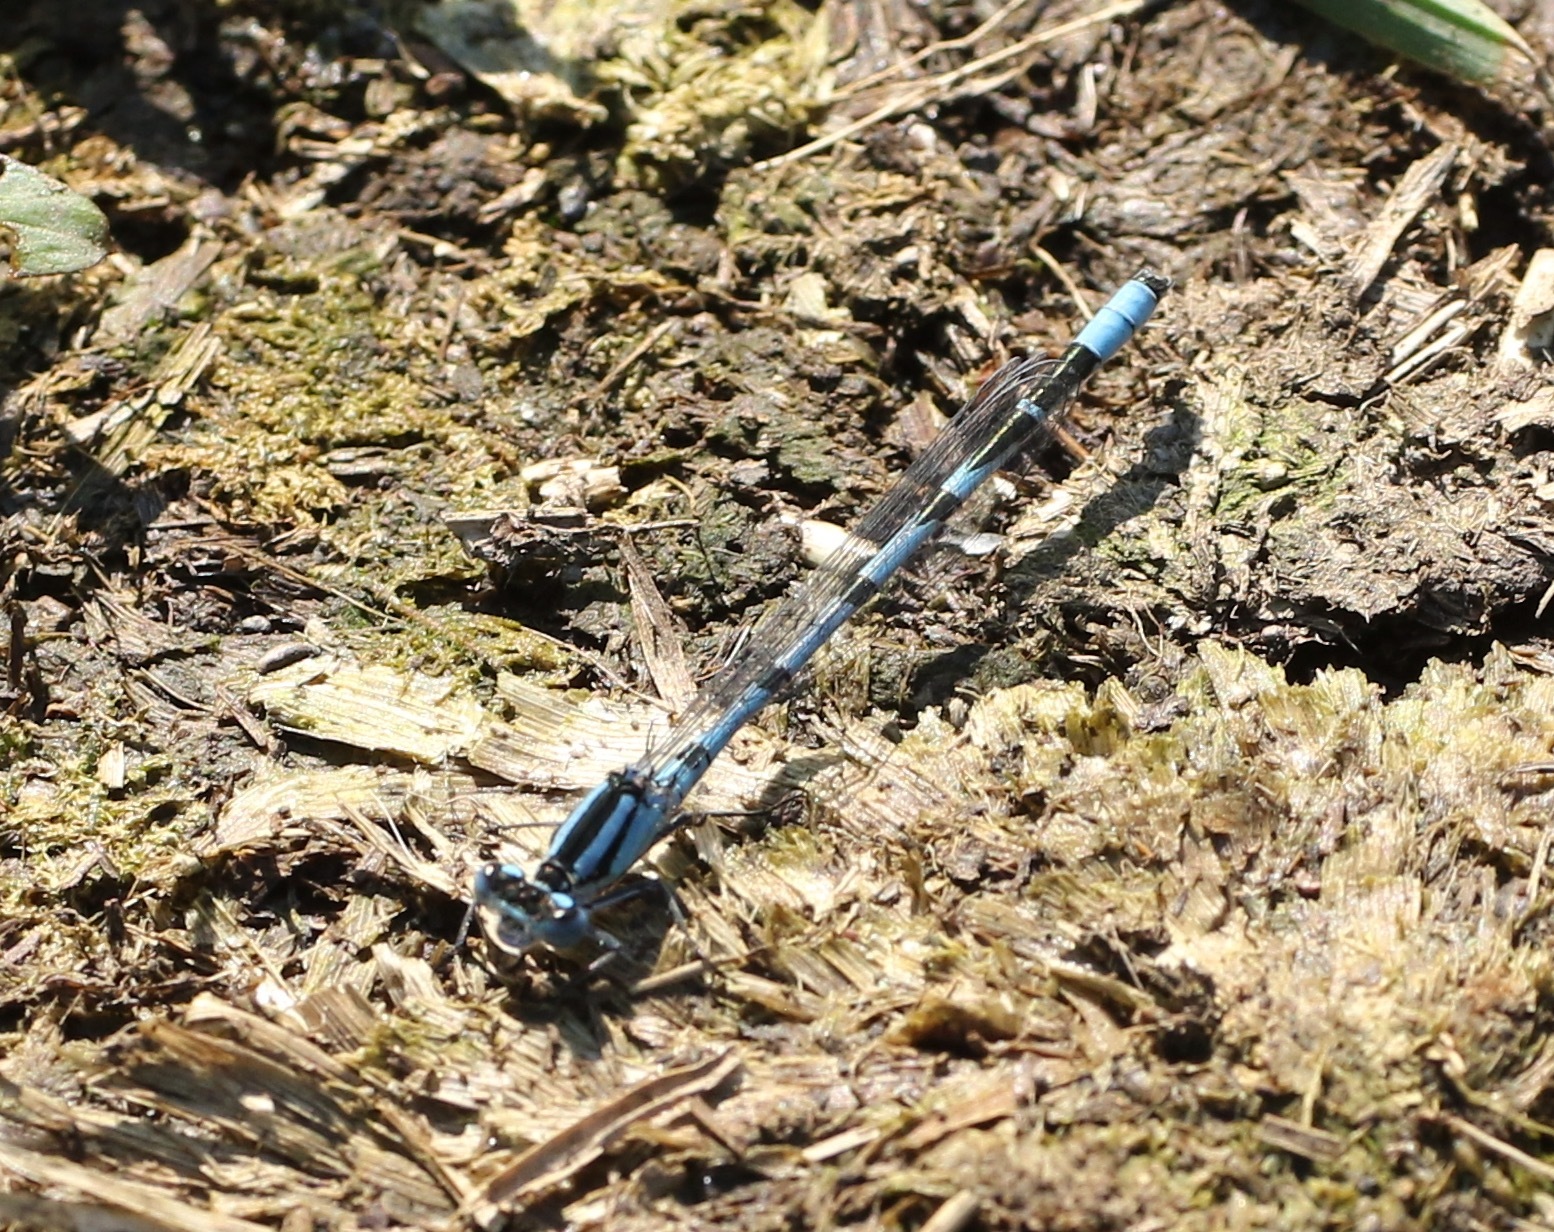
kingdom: Animalia
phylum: Arthropoda
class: Insecta
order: Odonata
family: Coenagrionidae
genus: Enallagma
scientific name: Enallagma cyathigerum
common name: Common blue damselfly
